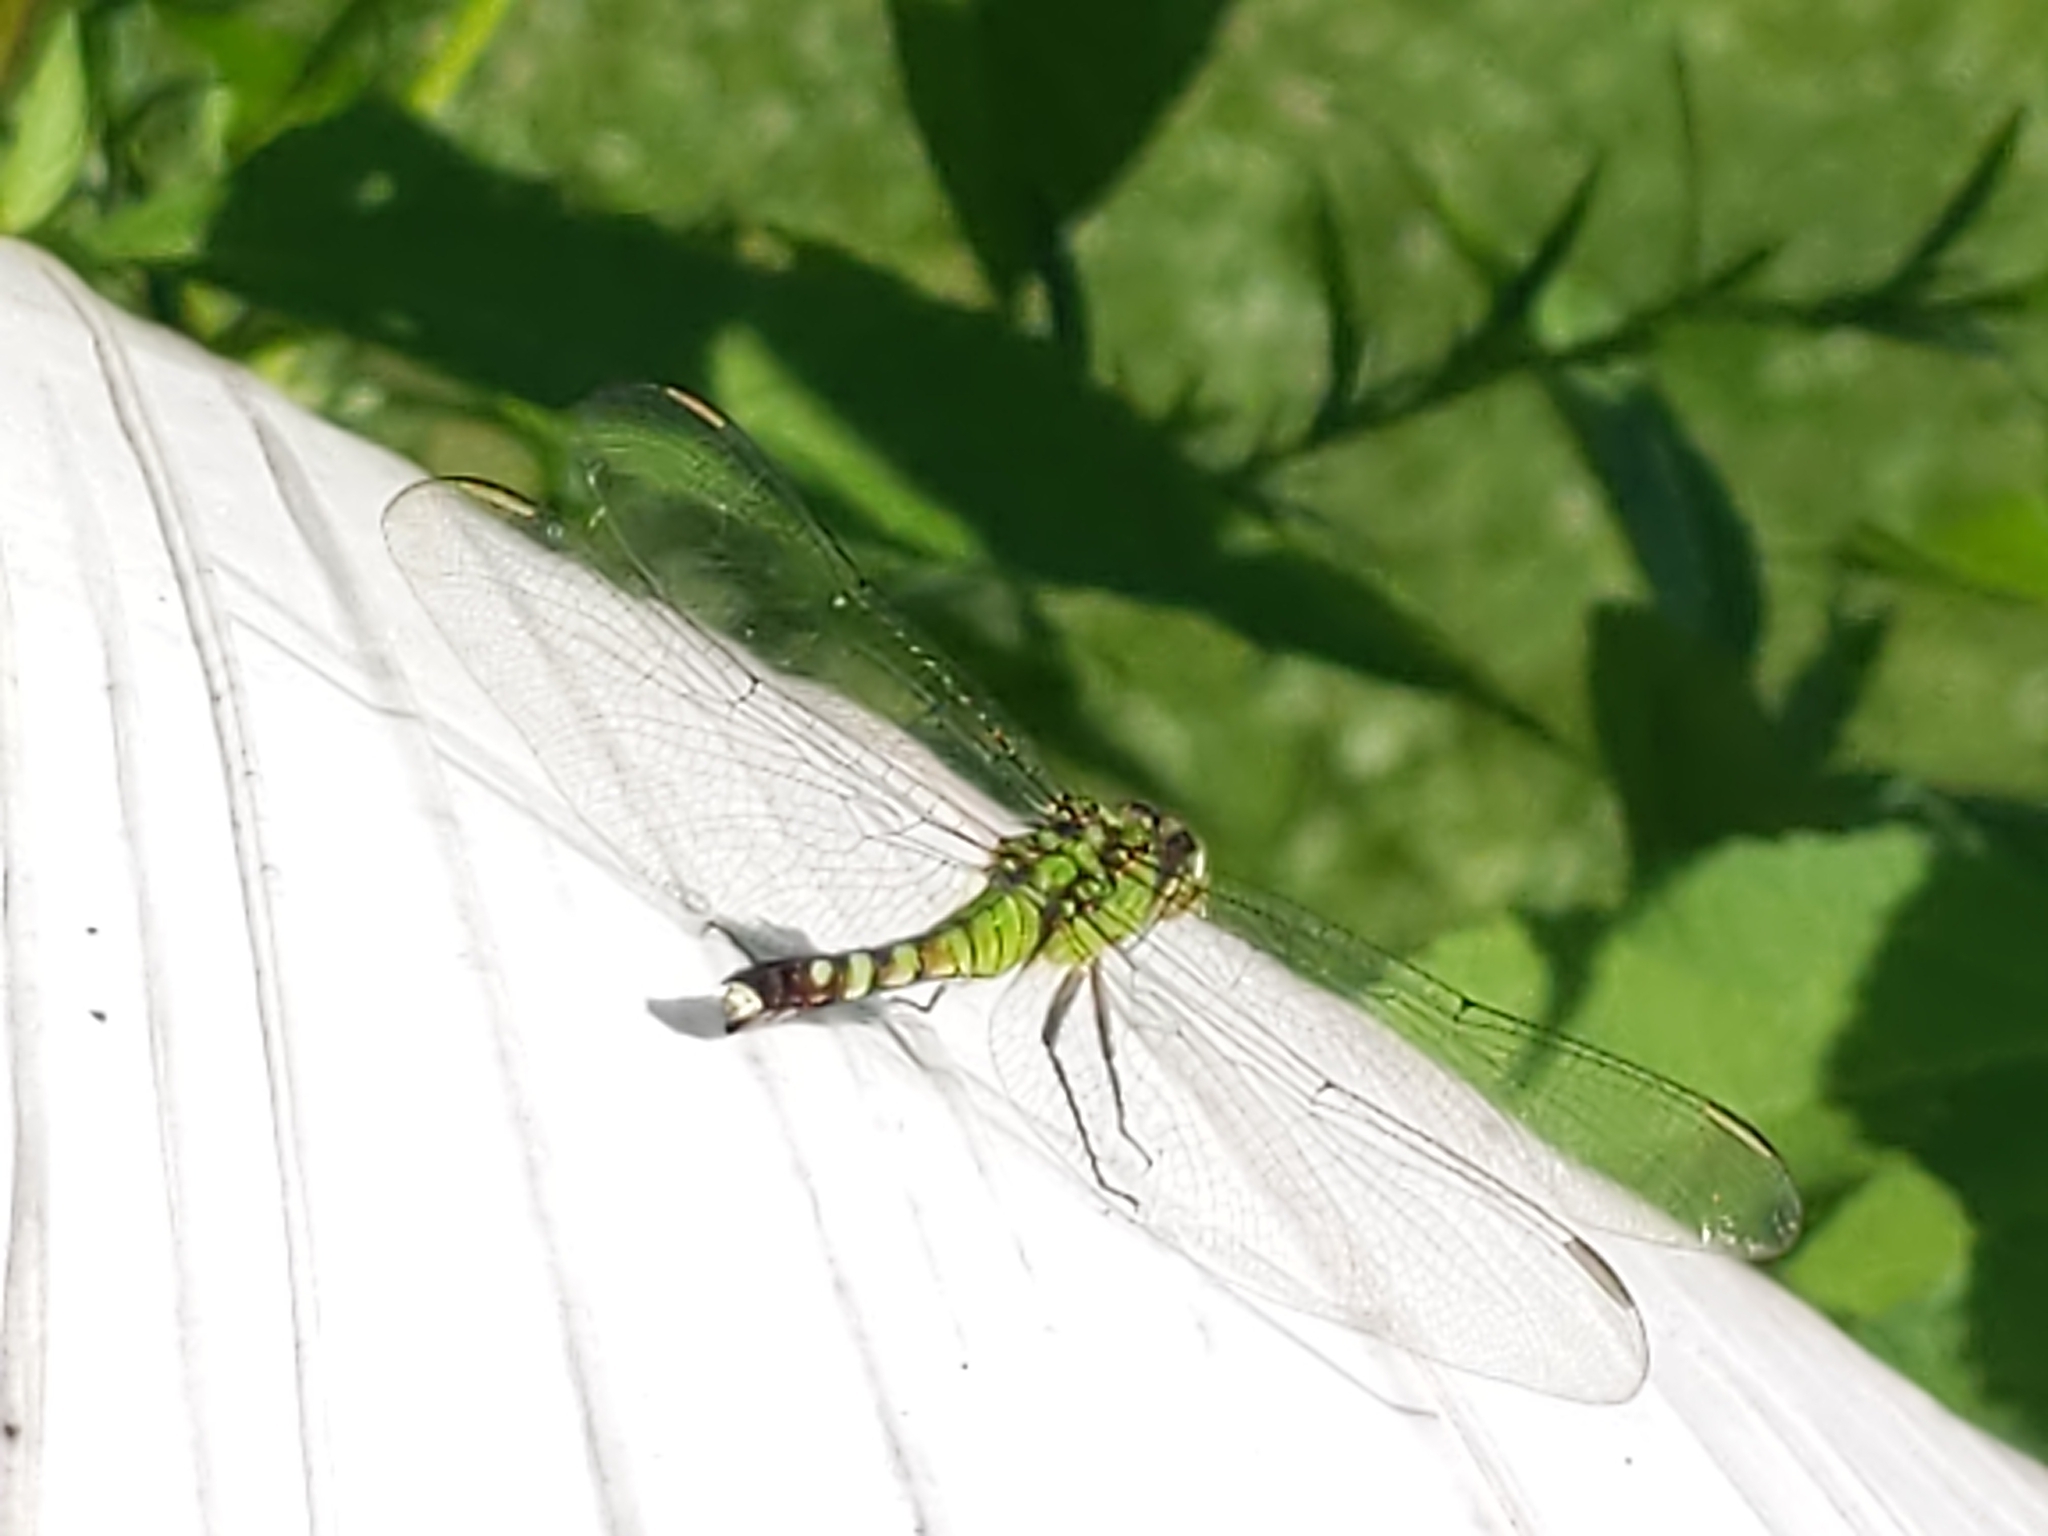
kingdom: Animalia
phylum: Arthropoda
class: Insecta
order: Odonata
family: Libellulidae
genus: Erythemis
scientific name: Erythemis simplicicollis
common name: Eastern pondhawk
